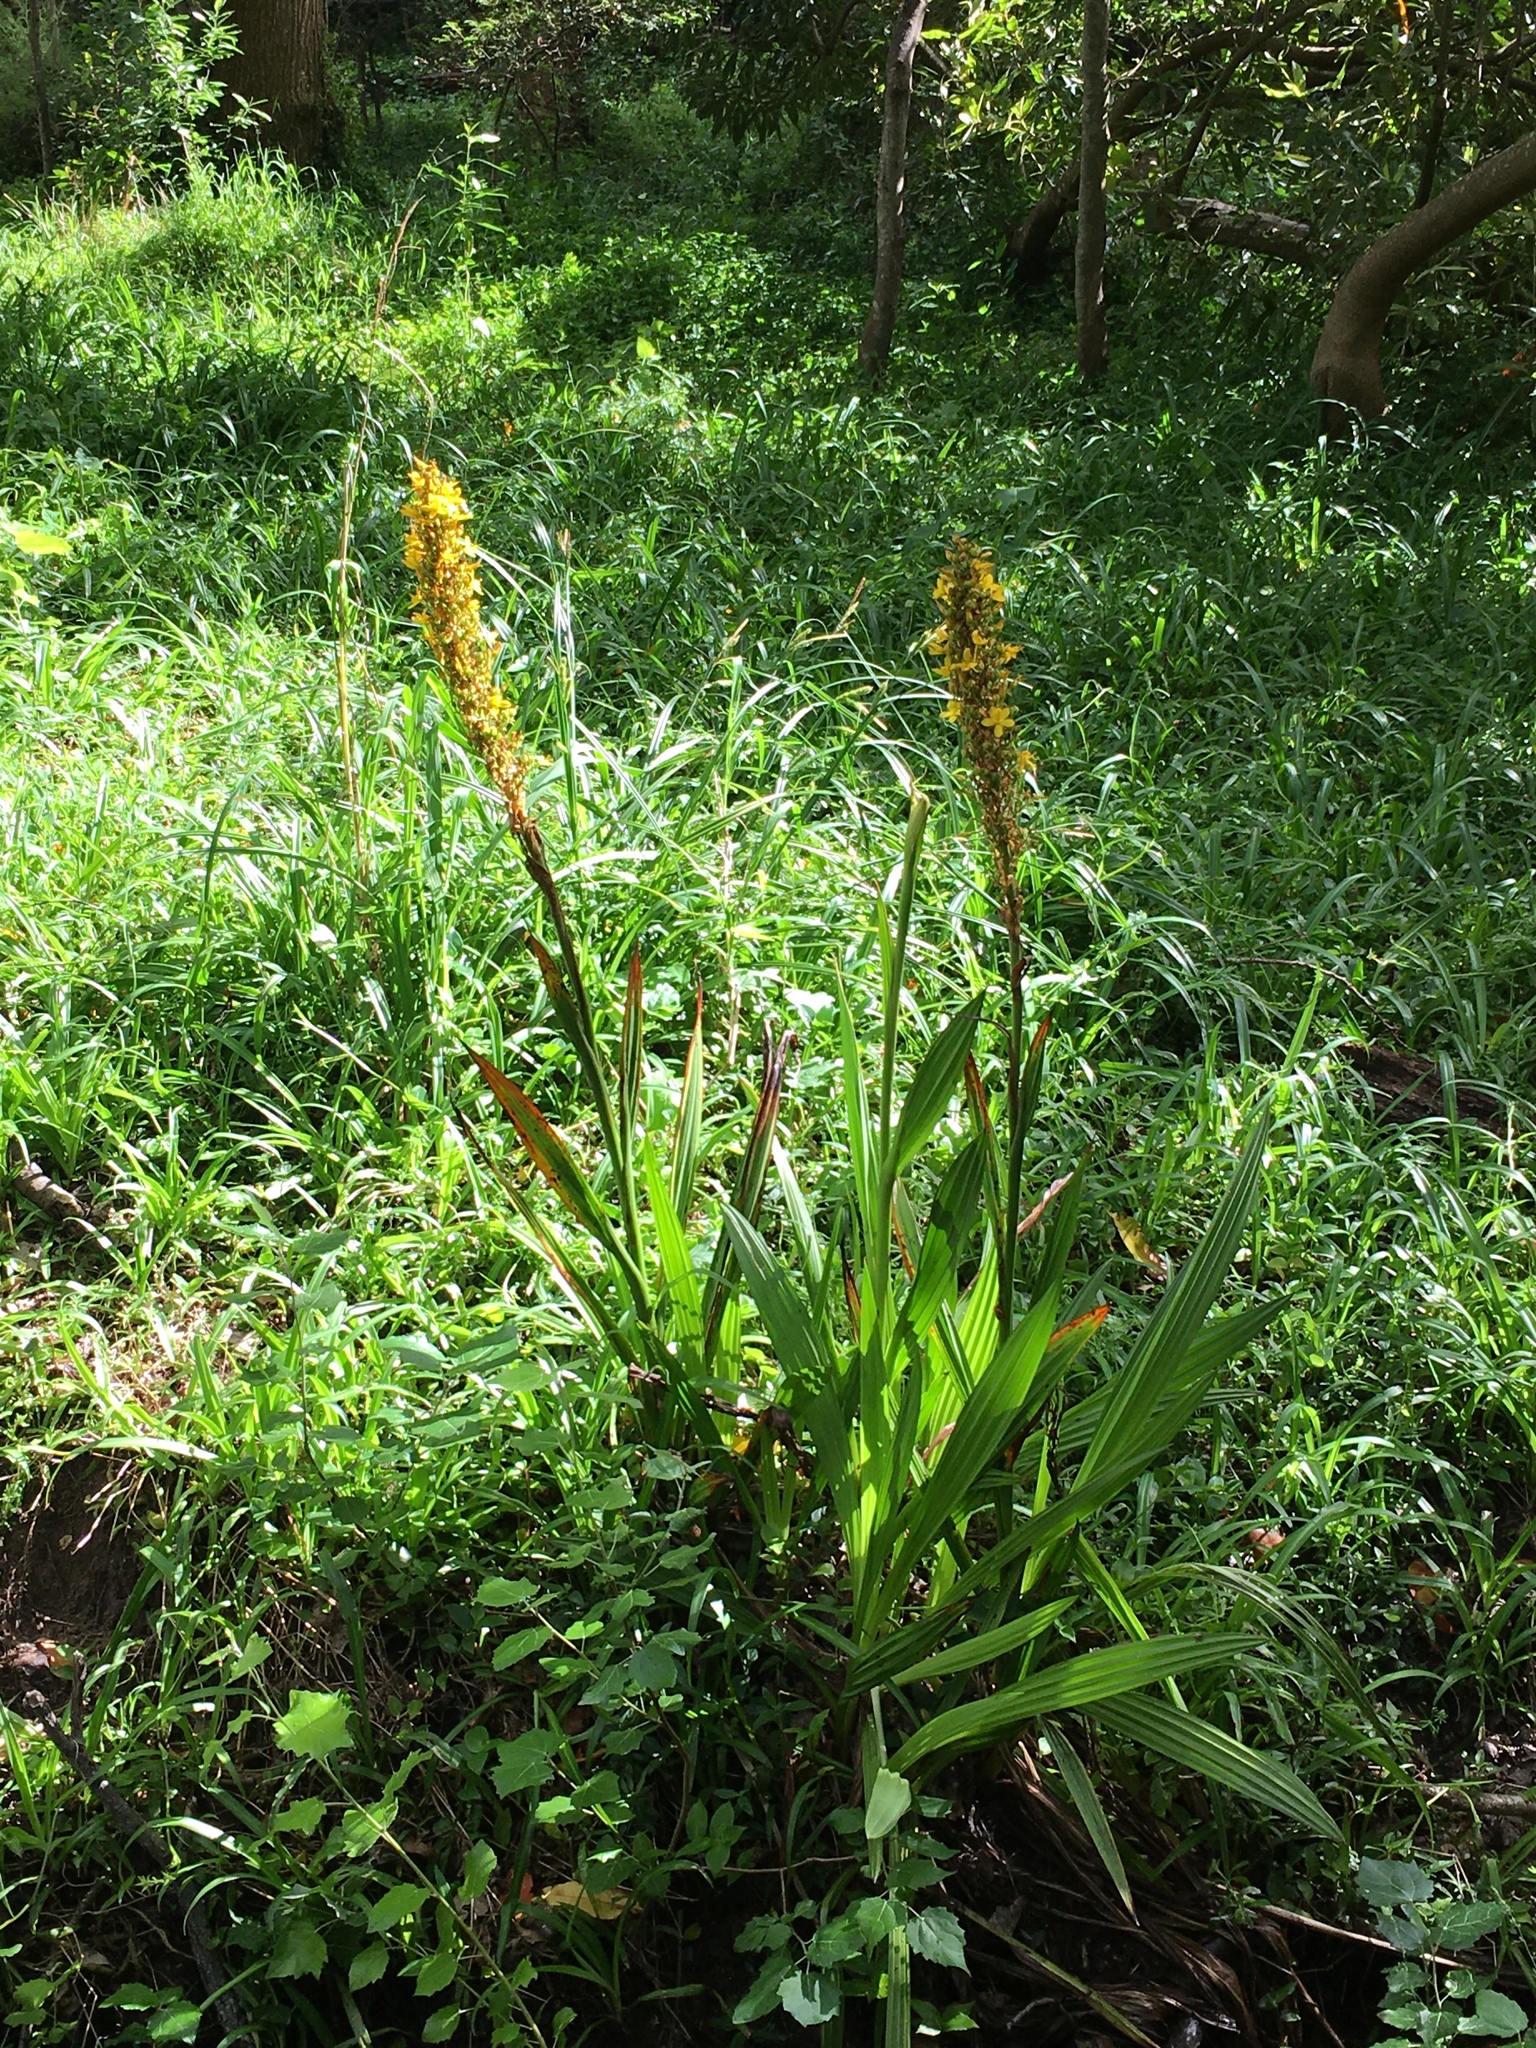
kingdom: Plantae
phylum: Tracheophyta
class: Liliopsida
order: Commelinales
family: Haemodoraceae
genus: Wachendorfia
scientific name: Wachendorfia thyrsiflora
